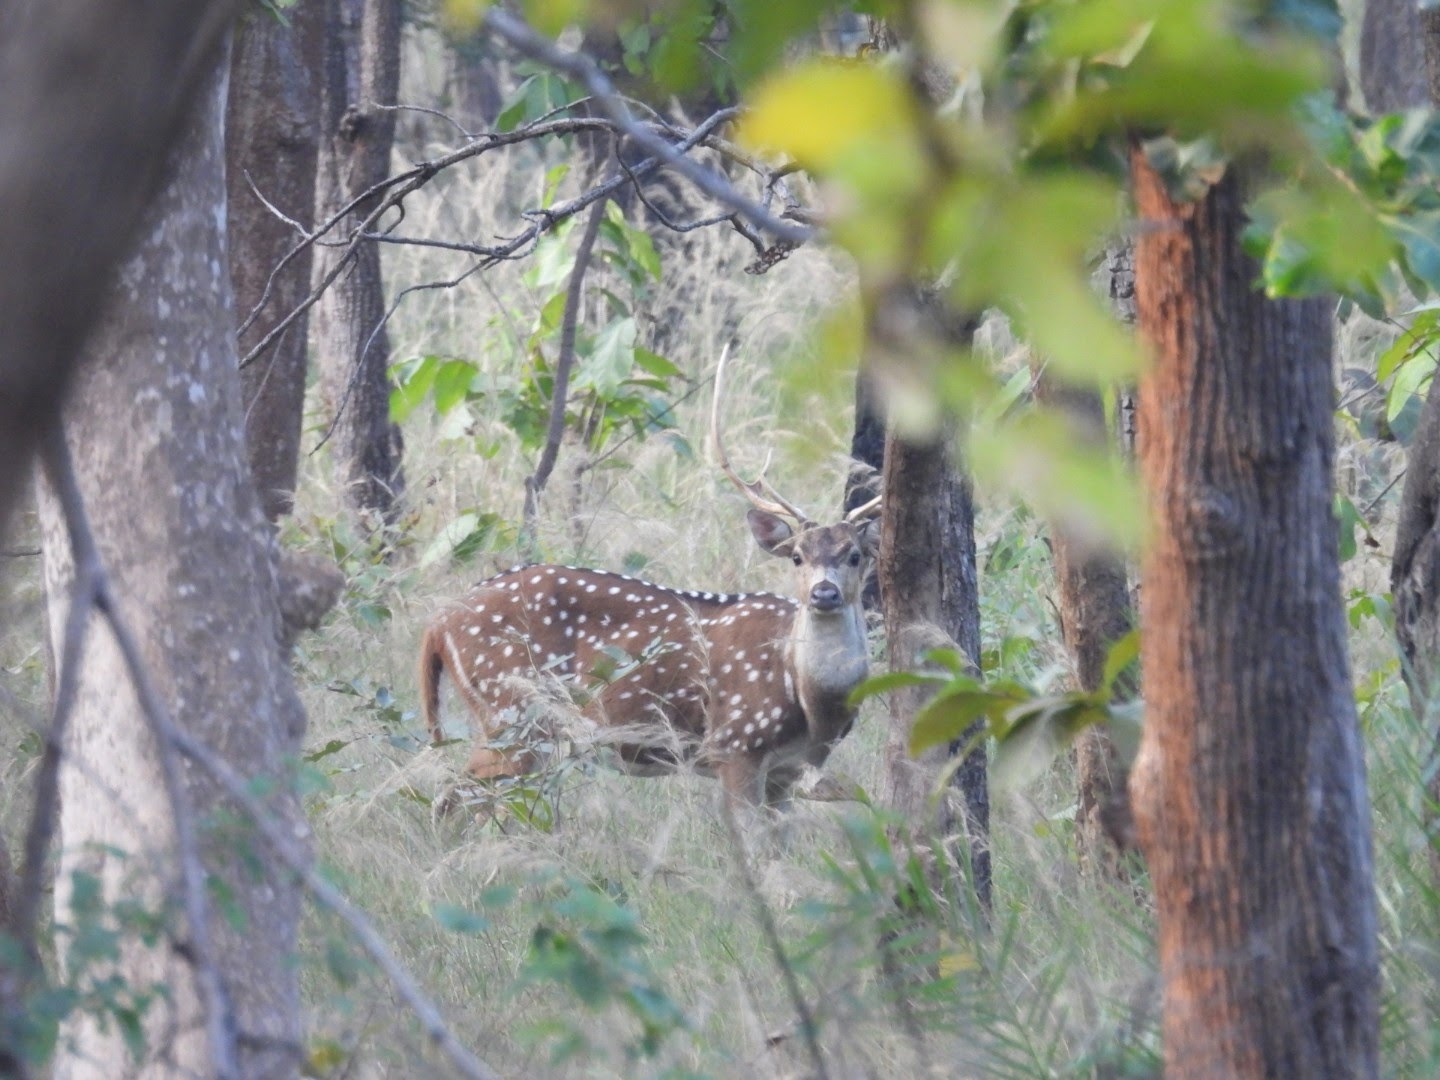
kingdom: Animalia
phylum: Chordata
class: Mammalia
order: Artiodactyla
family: Cervidae
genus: Axis
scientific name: Axis axis
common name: Chital
